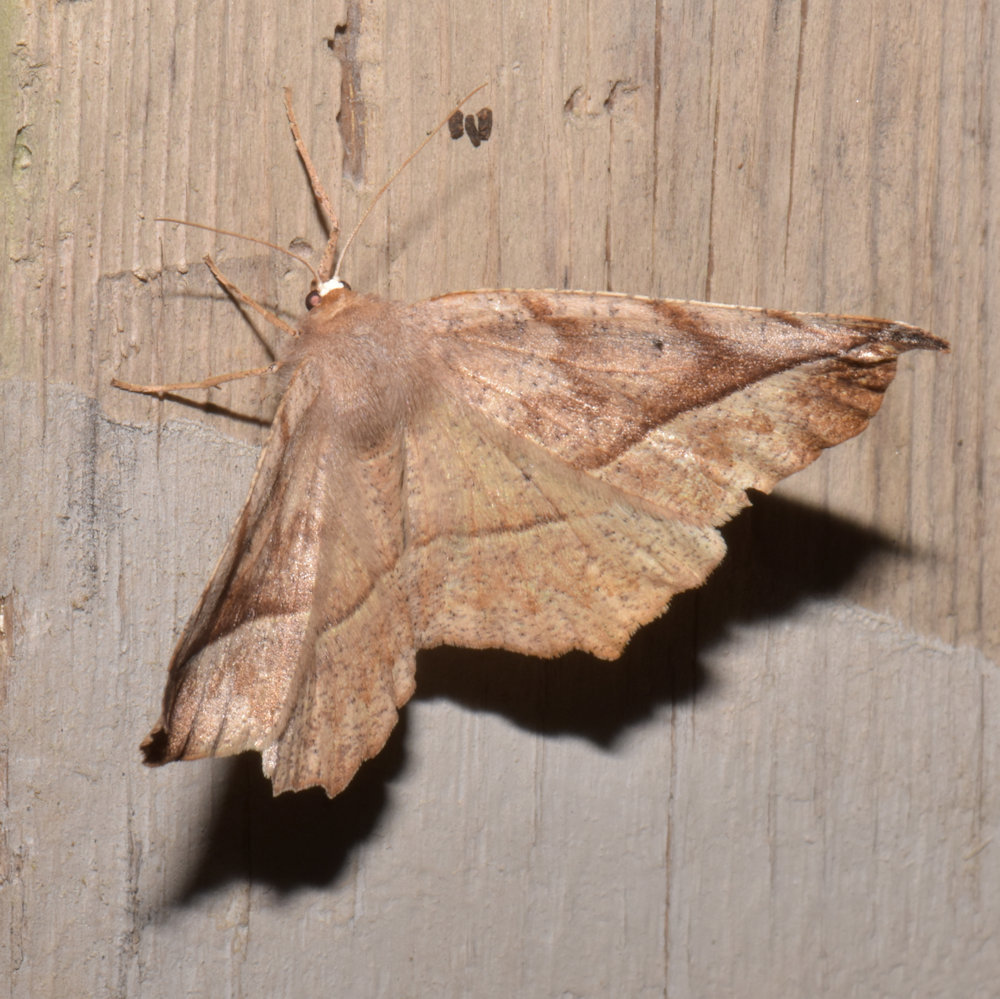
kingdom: Animalia
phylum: Arthropoda
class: Insecta
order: Lepidoptera
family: Geometridae
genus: Eutrapela
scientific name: Eutrapela clemataria
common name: Curved-toothed geometer
